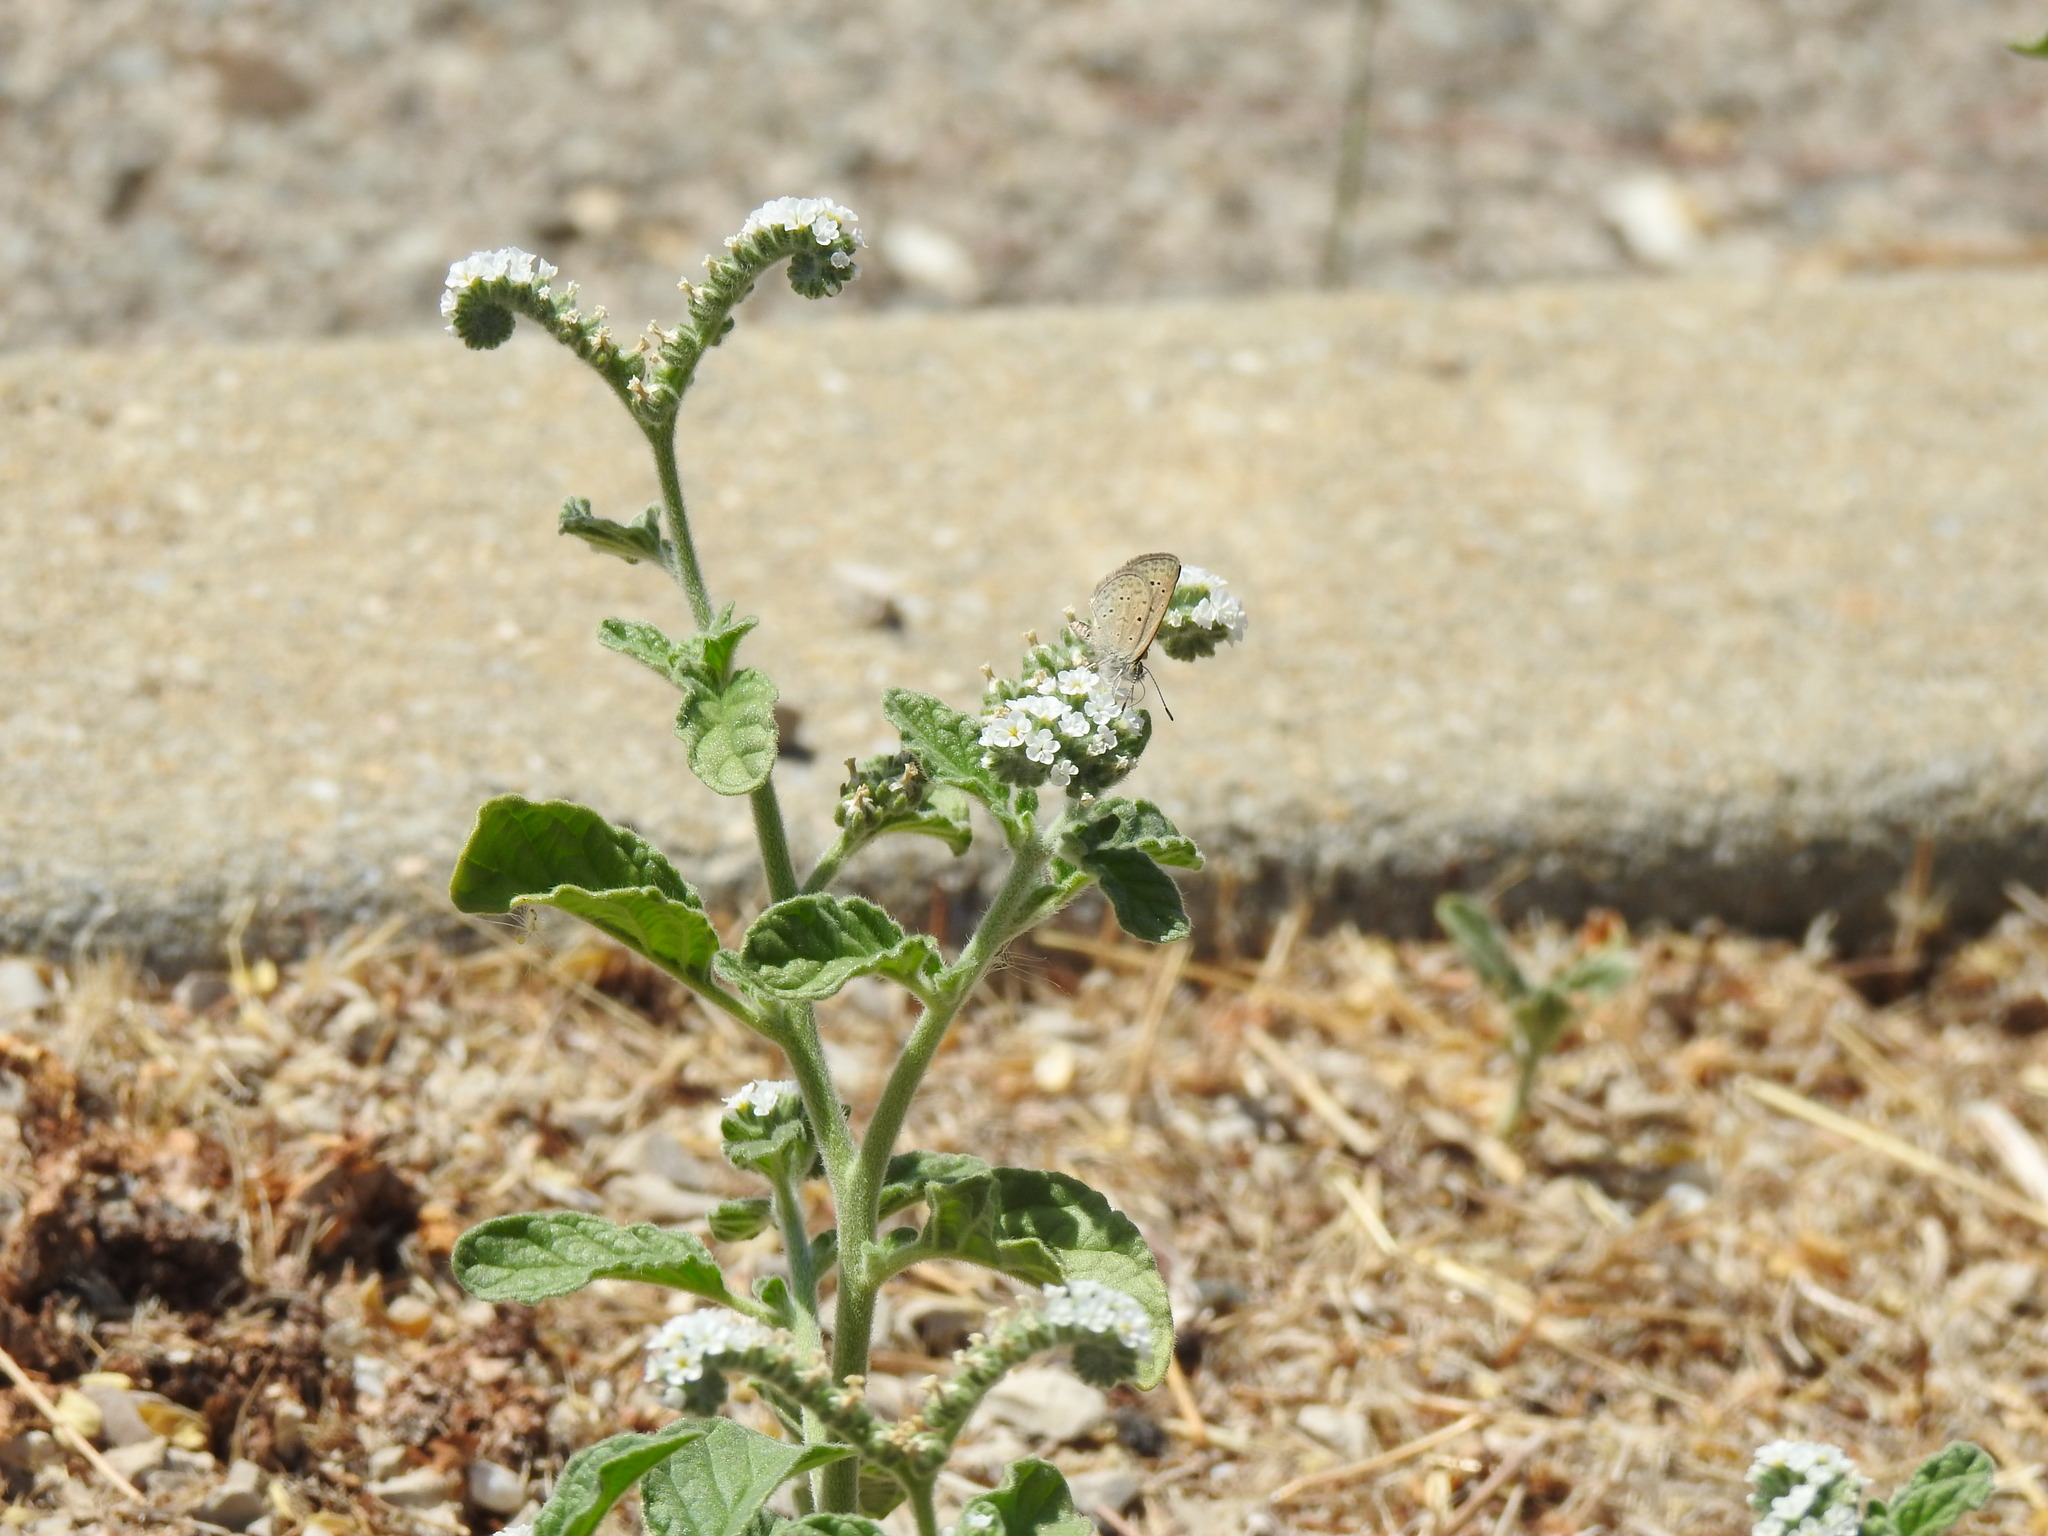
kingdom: Plantae
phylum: Tracheophyta
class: Magnoliopsida
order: Boraginales
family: Heliotropiaceae
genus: Heliotropium
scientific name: Heliotropium europaeum
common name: European heliotrope
